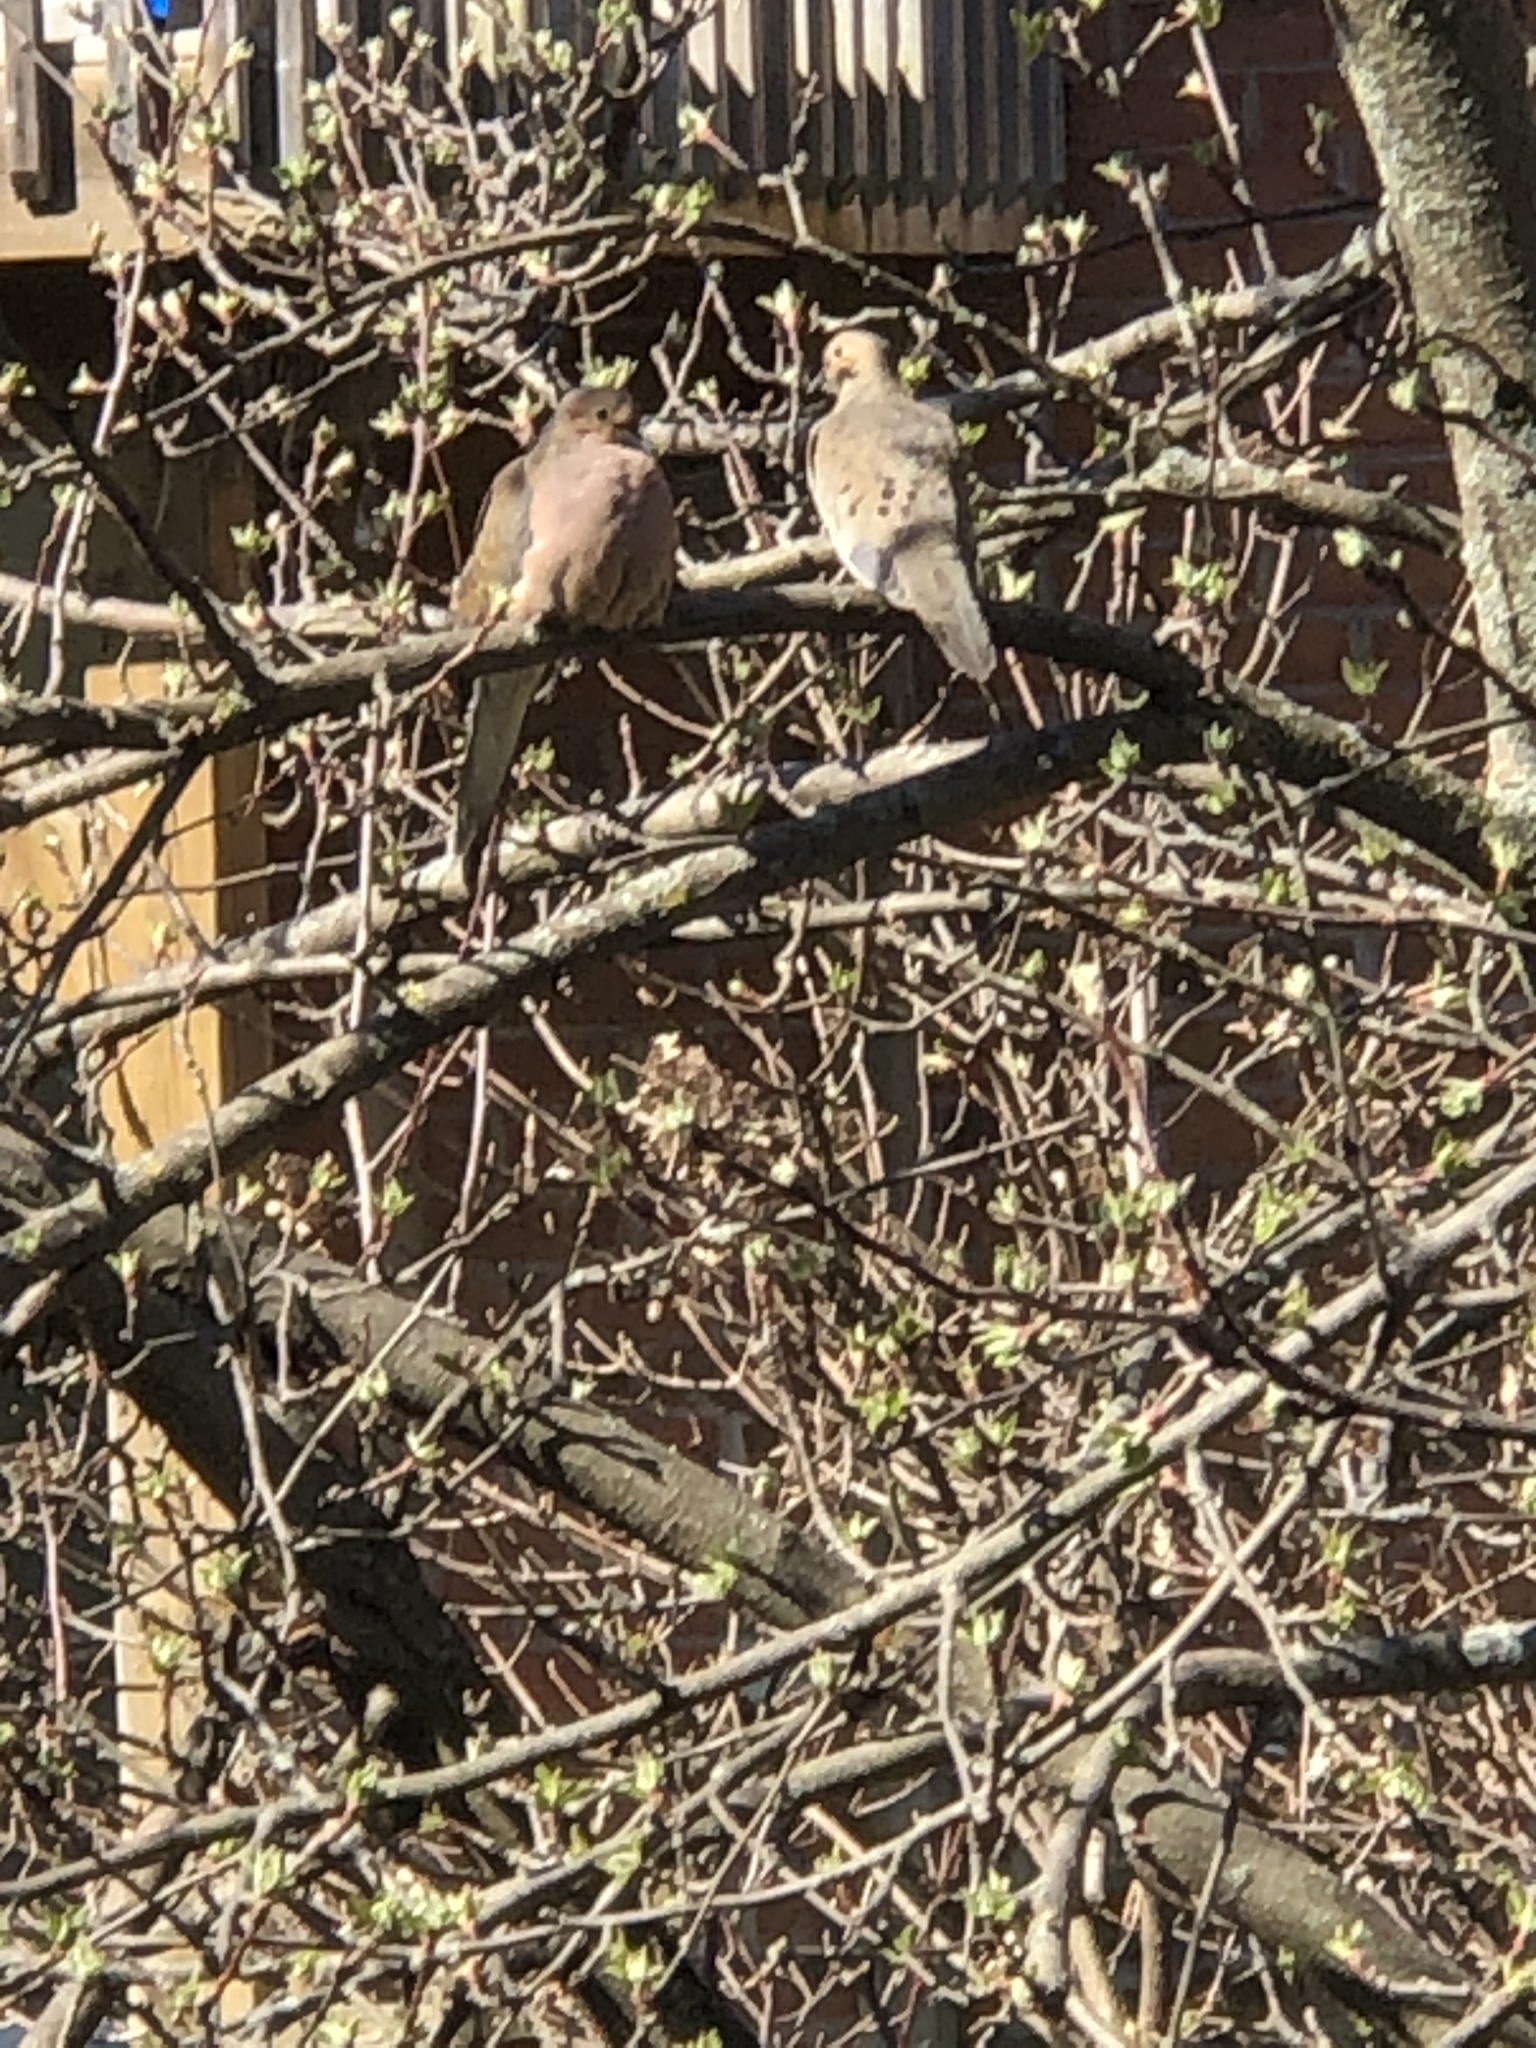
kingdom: Animalia
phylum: Chordata
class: Aves
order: Columbiformes
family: Columbidae
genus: Zenaida
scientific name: Zenaida macroura
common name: Mourning dove
